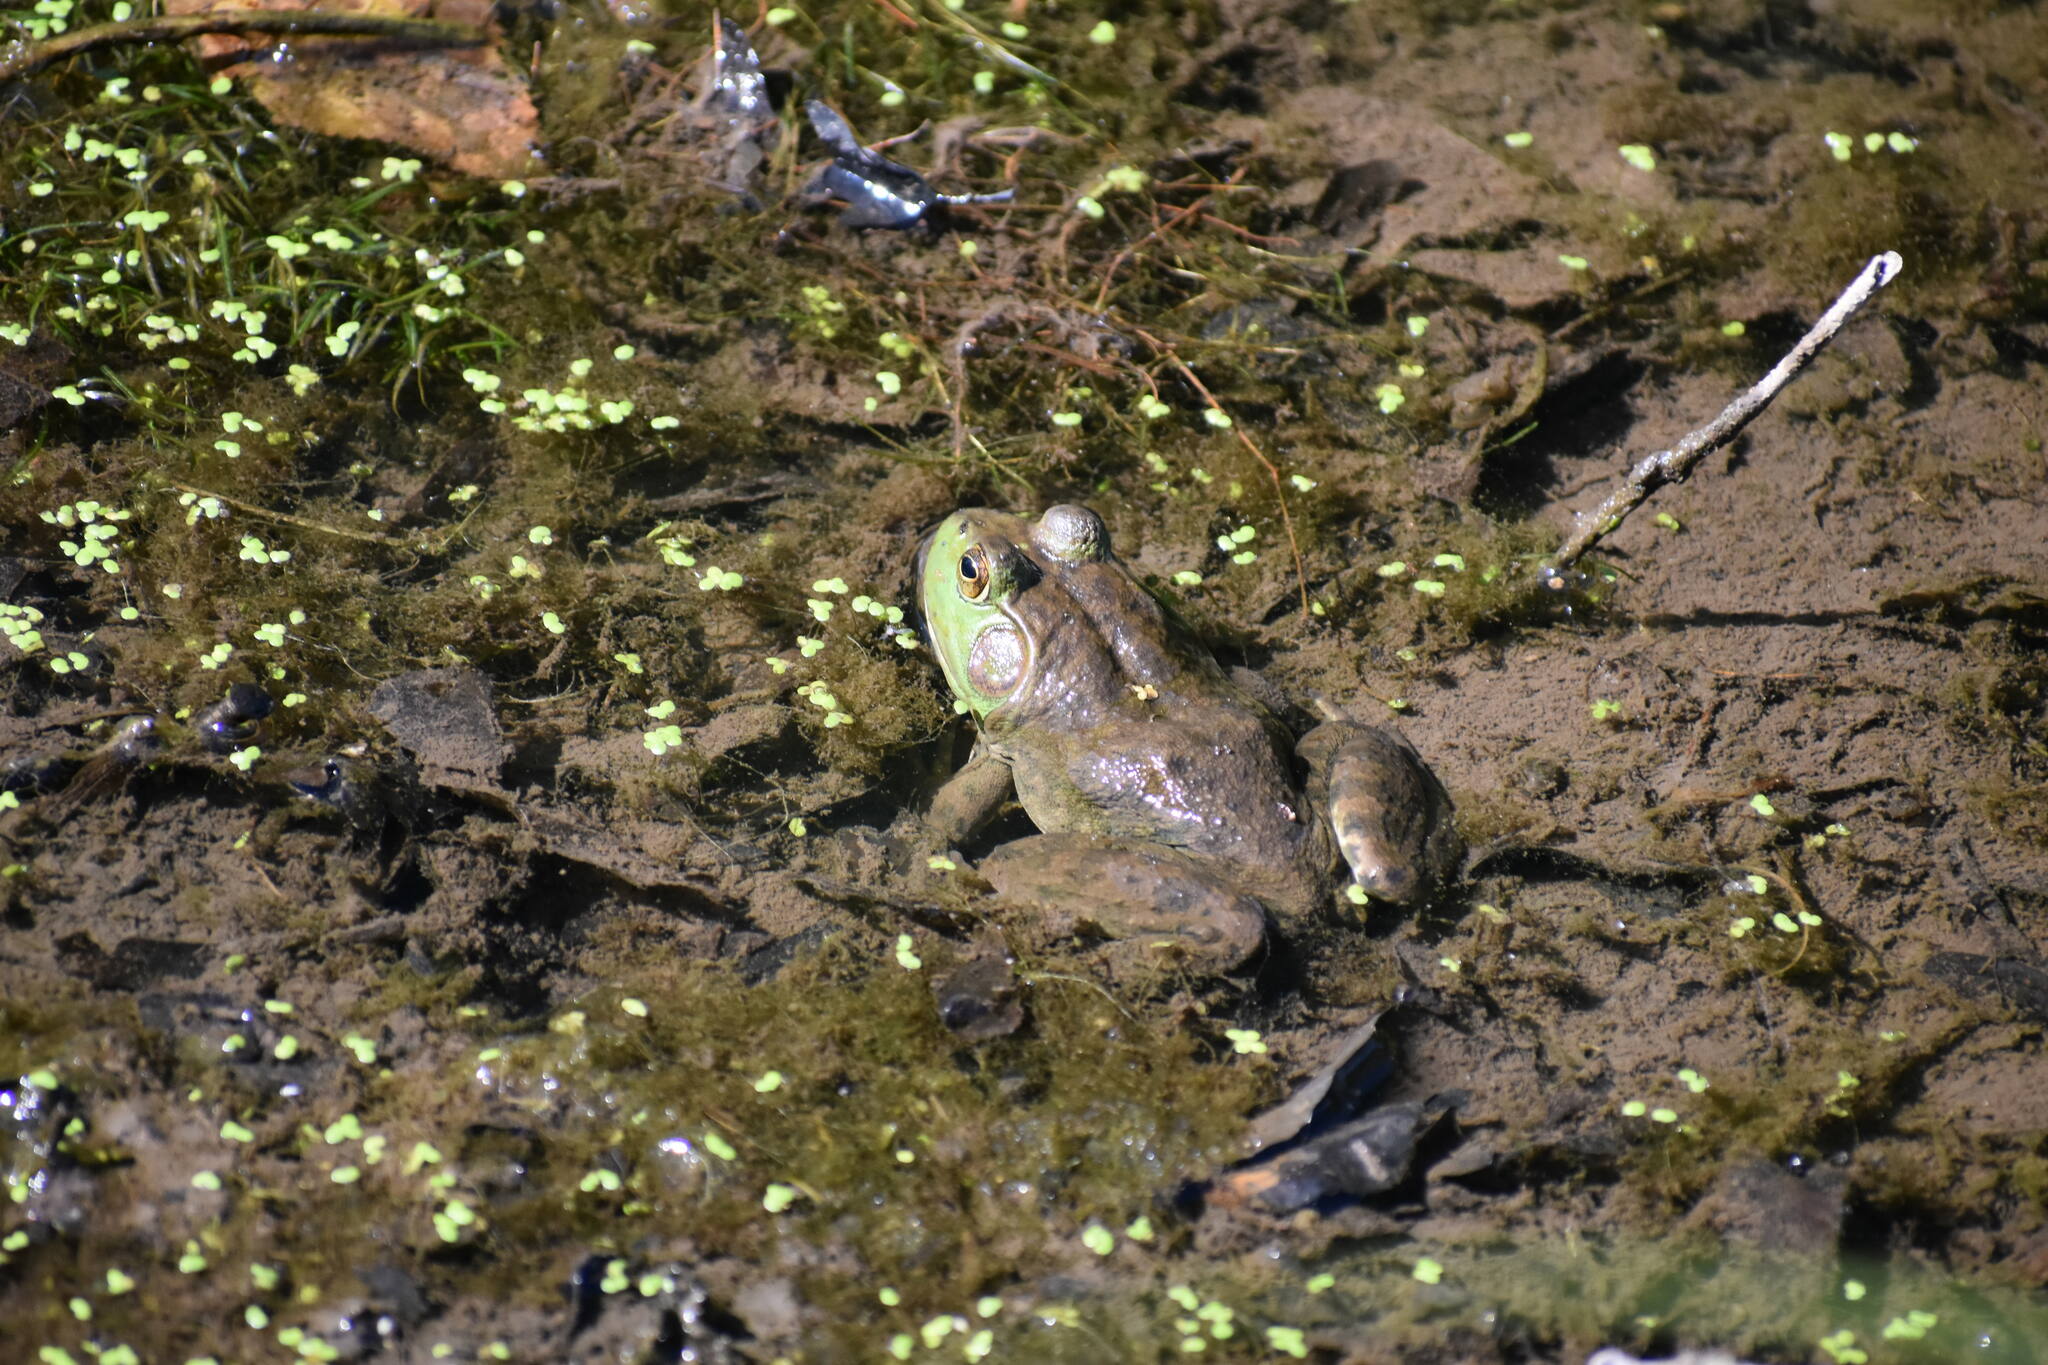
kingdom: Animalia
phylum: Chordata
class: Amphibia
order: Anura
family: Ranidae
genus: Lithobates
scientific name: Lithobates catesbeianus
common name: American bullfrog
